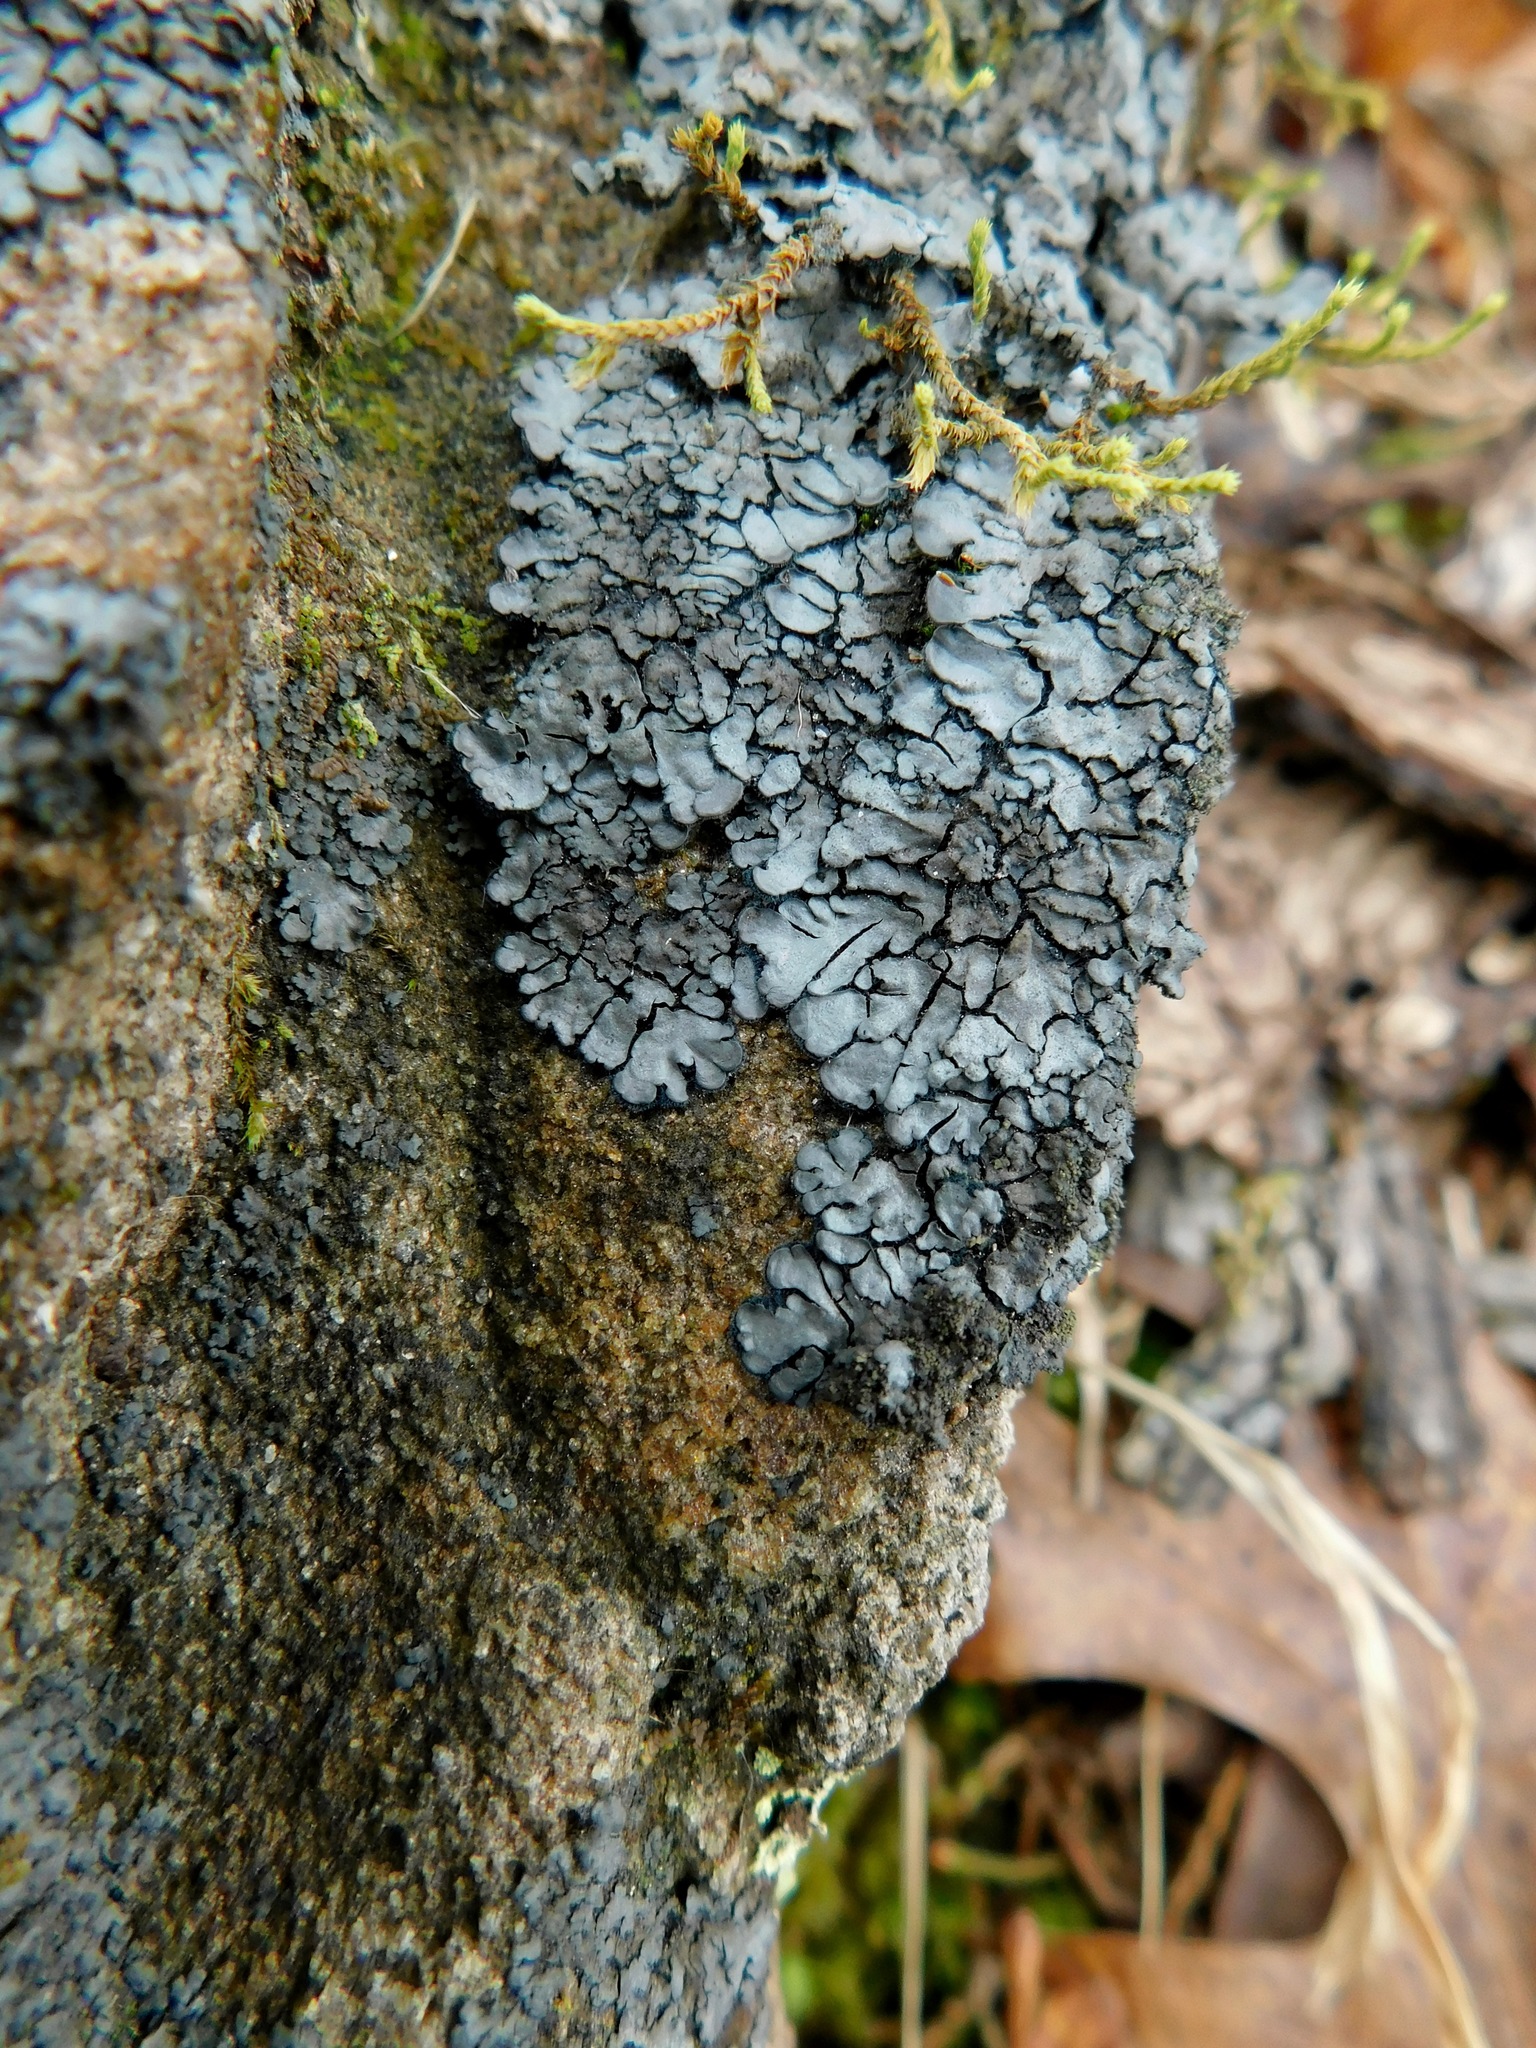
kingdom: Fungi
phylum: Ascomycota
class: Lecanoromycetes
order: Peltigerales
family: Coccocarpiaceae
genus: Coccocarpia
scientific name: Coccocarpia palmicola
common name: Salted shell lichen
